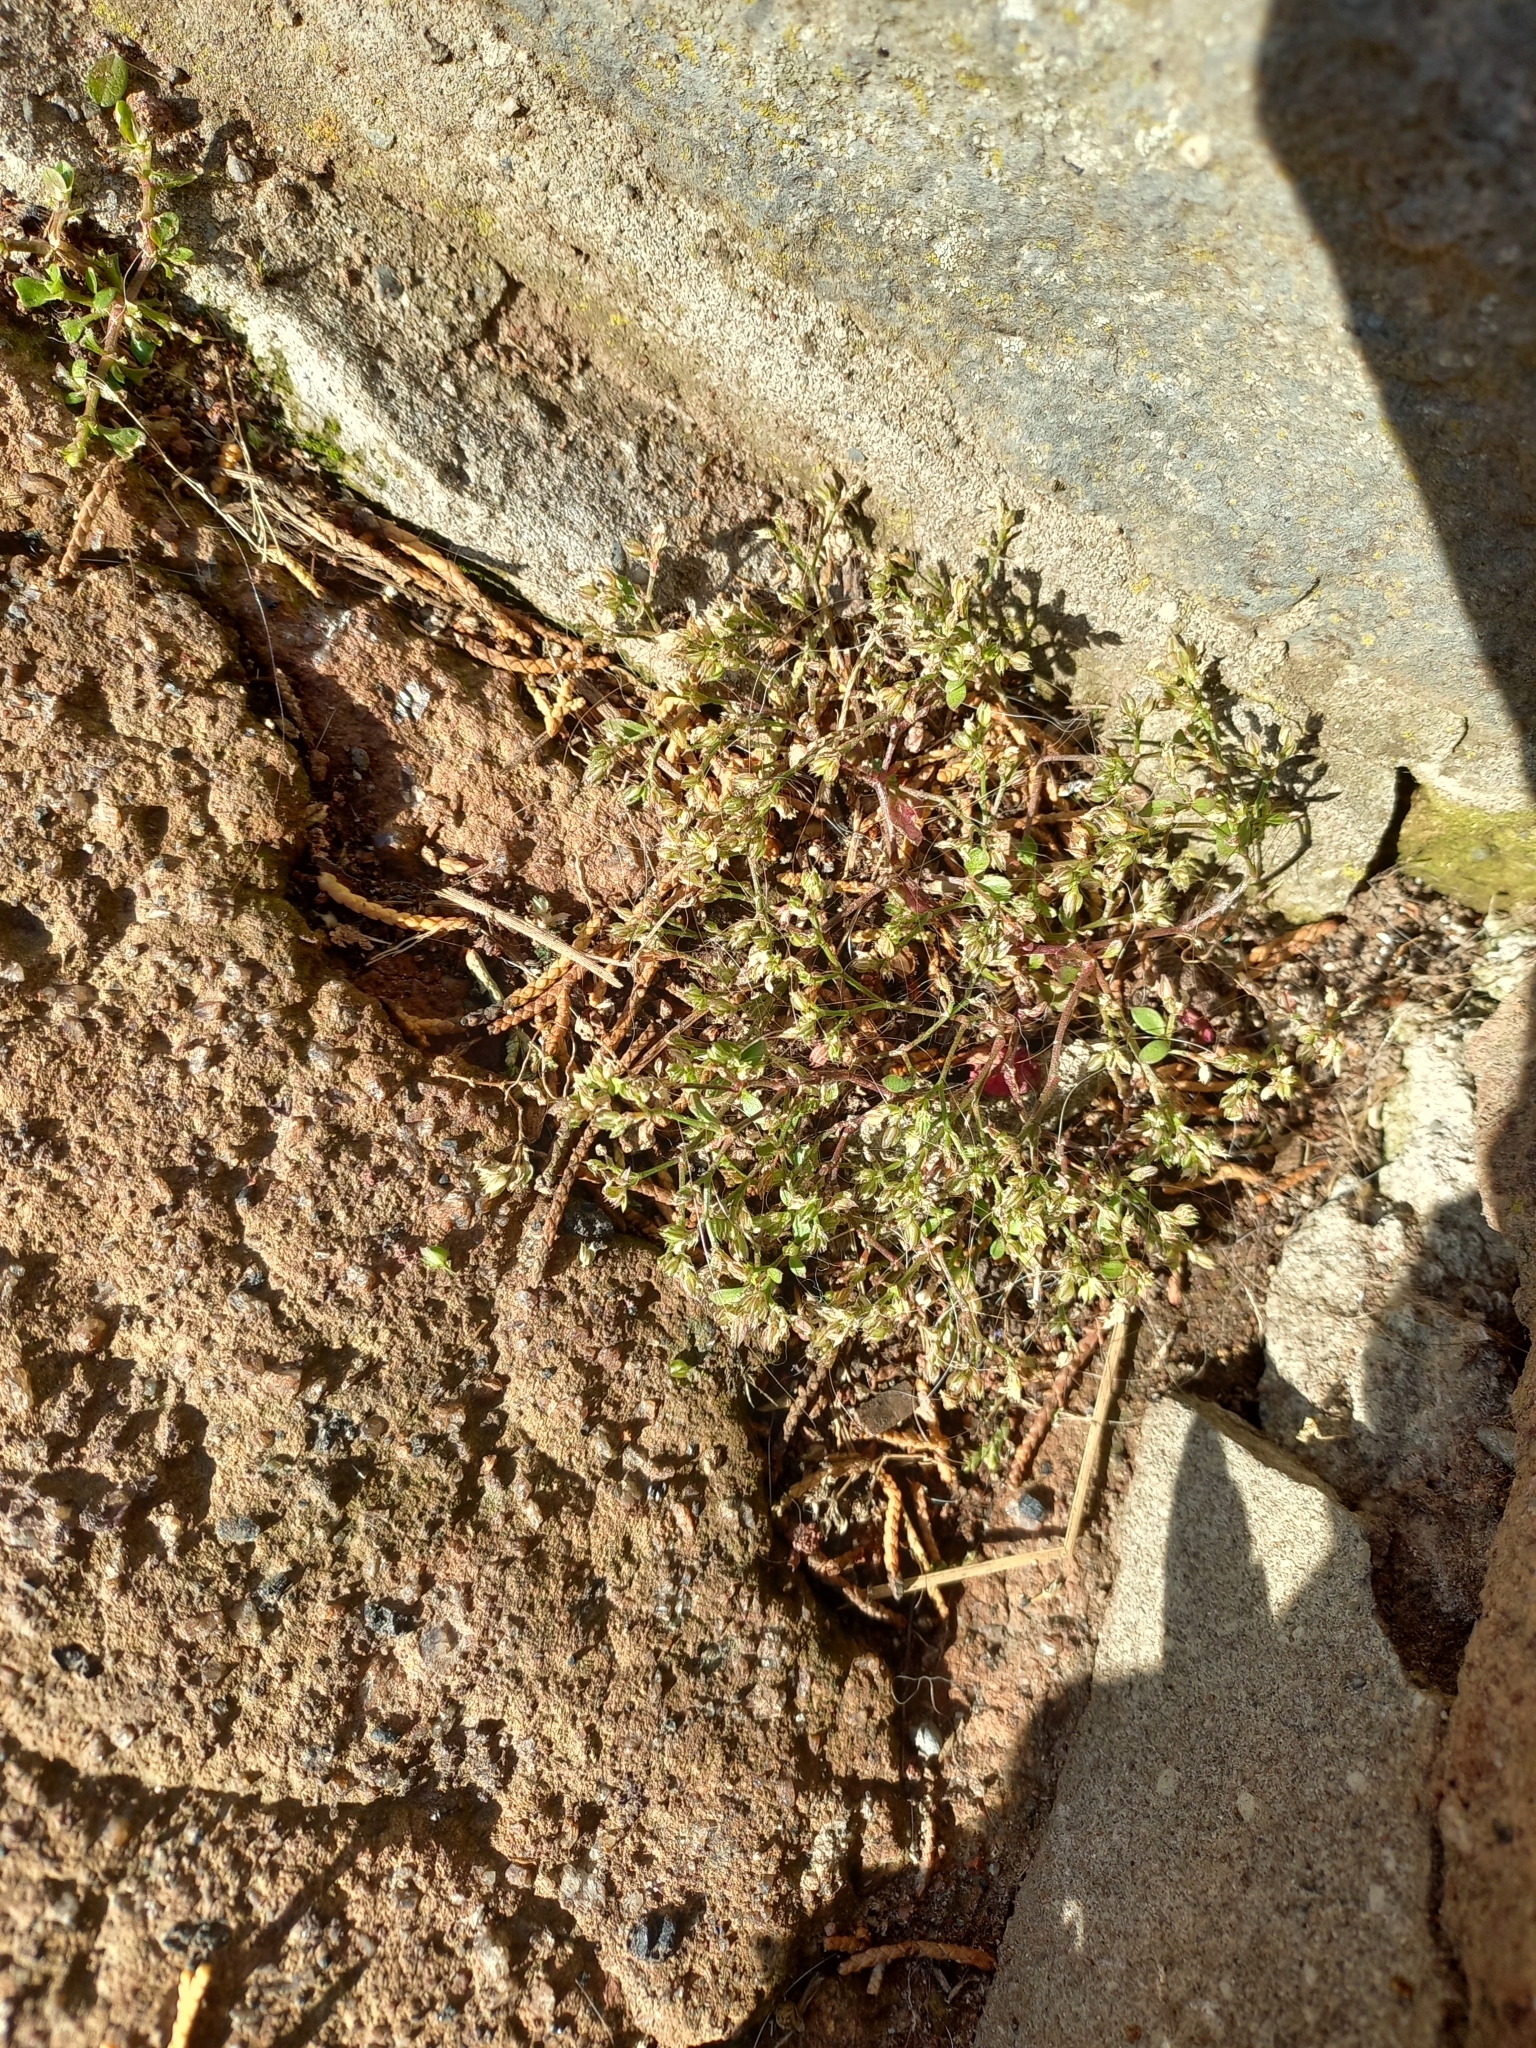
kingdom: Plantae
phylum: Tracheophyta
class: Magnoliopsida
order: Caryophyllales
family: Caryophyllaceae
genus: Polycarpon
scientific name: Polycarpon tetraphyllum
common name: Four-leaved all-seed
